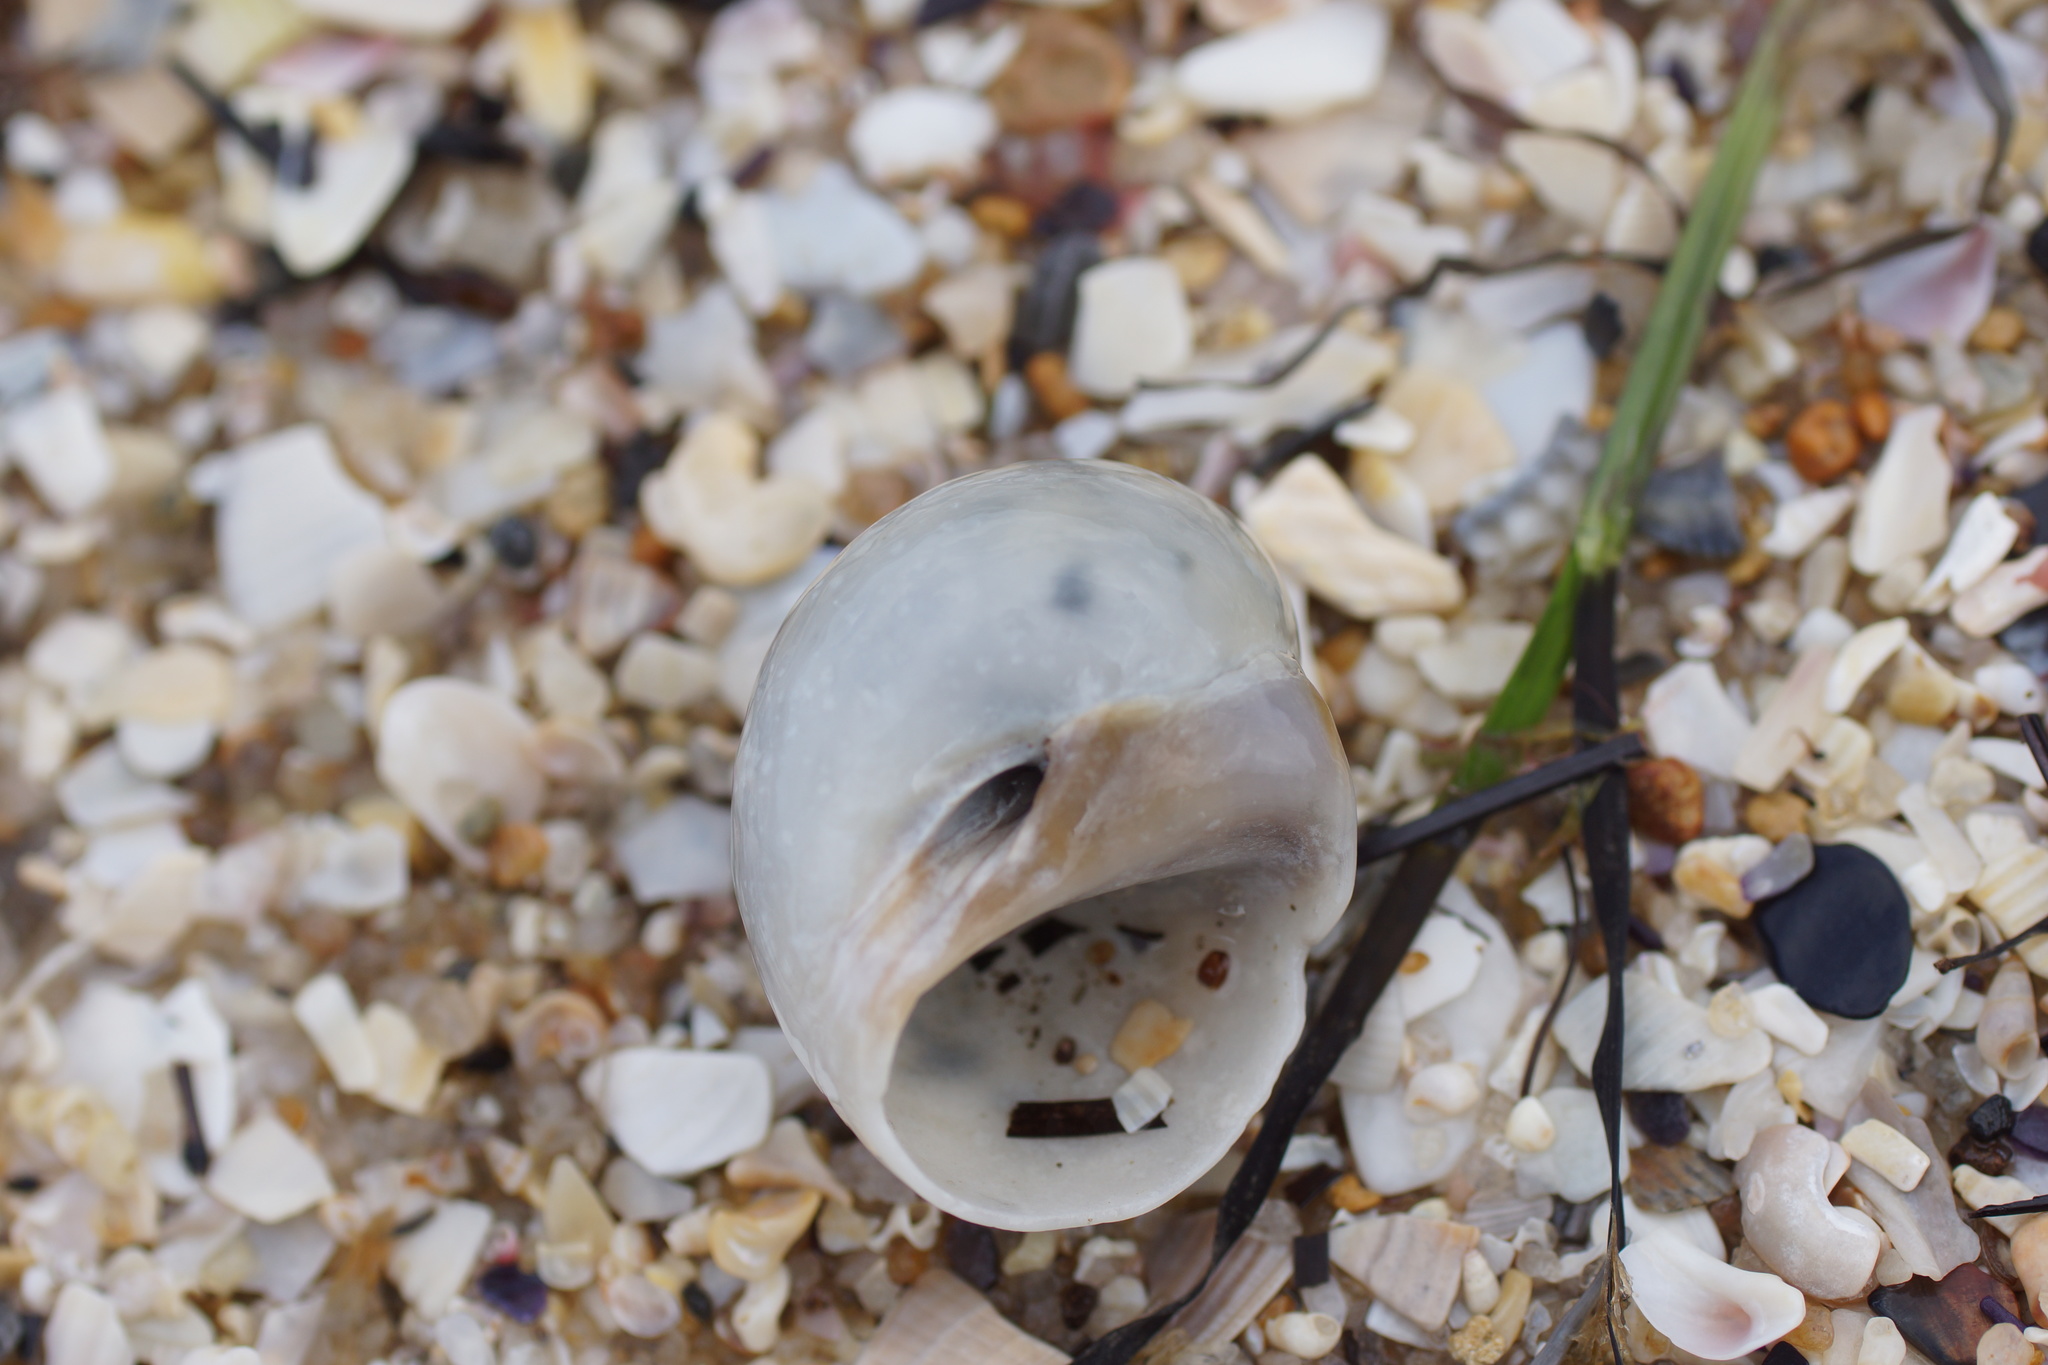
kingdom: Animalia
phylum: Mollusca
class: Gastropoda
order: Littorinimorpha
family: Naticidae
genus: Conuber
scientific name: Conuber conicum
